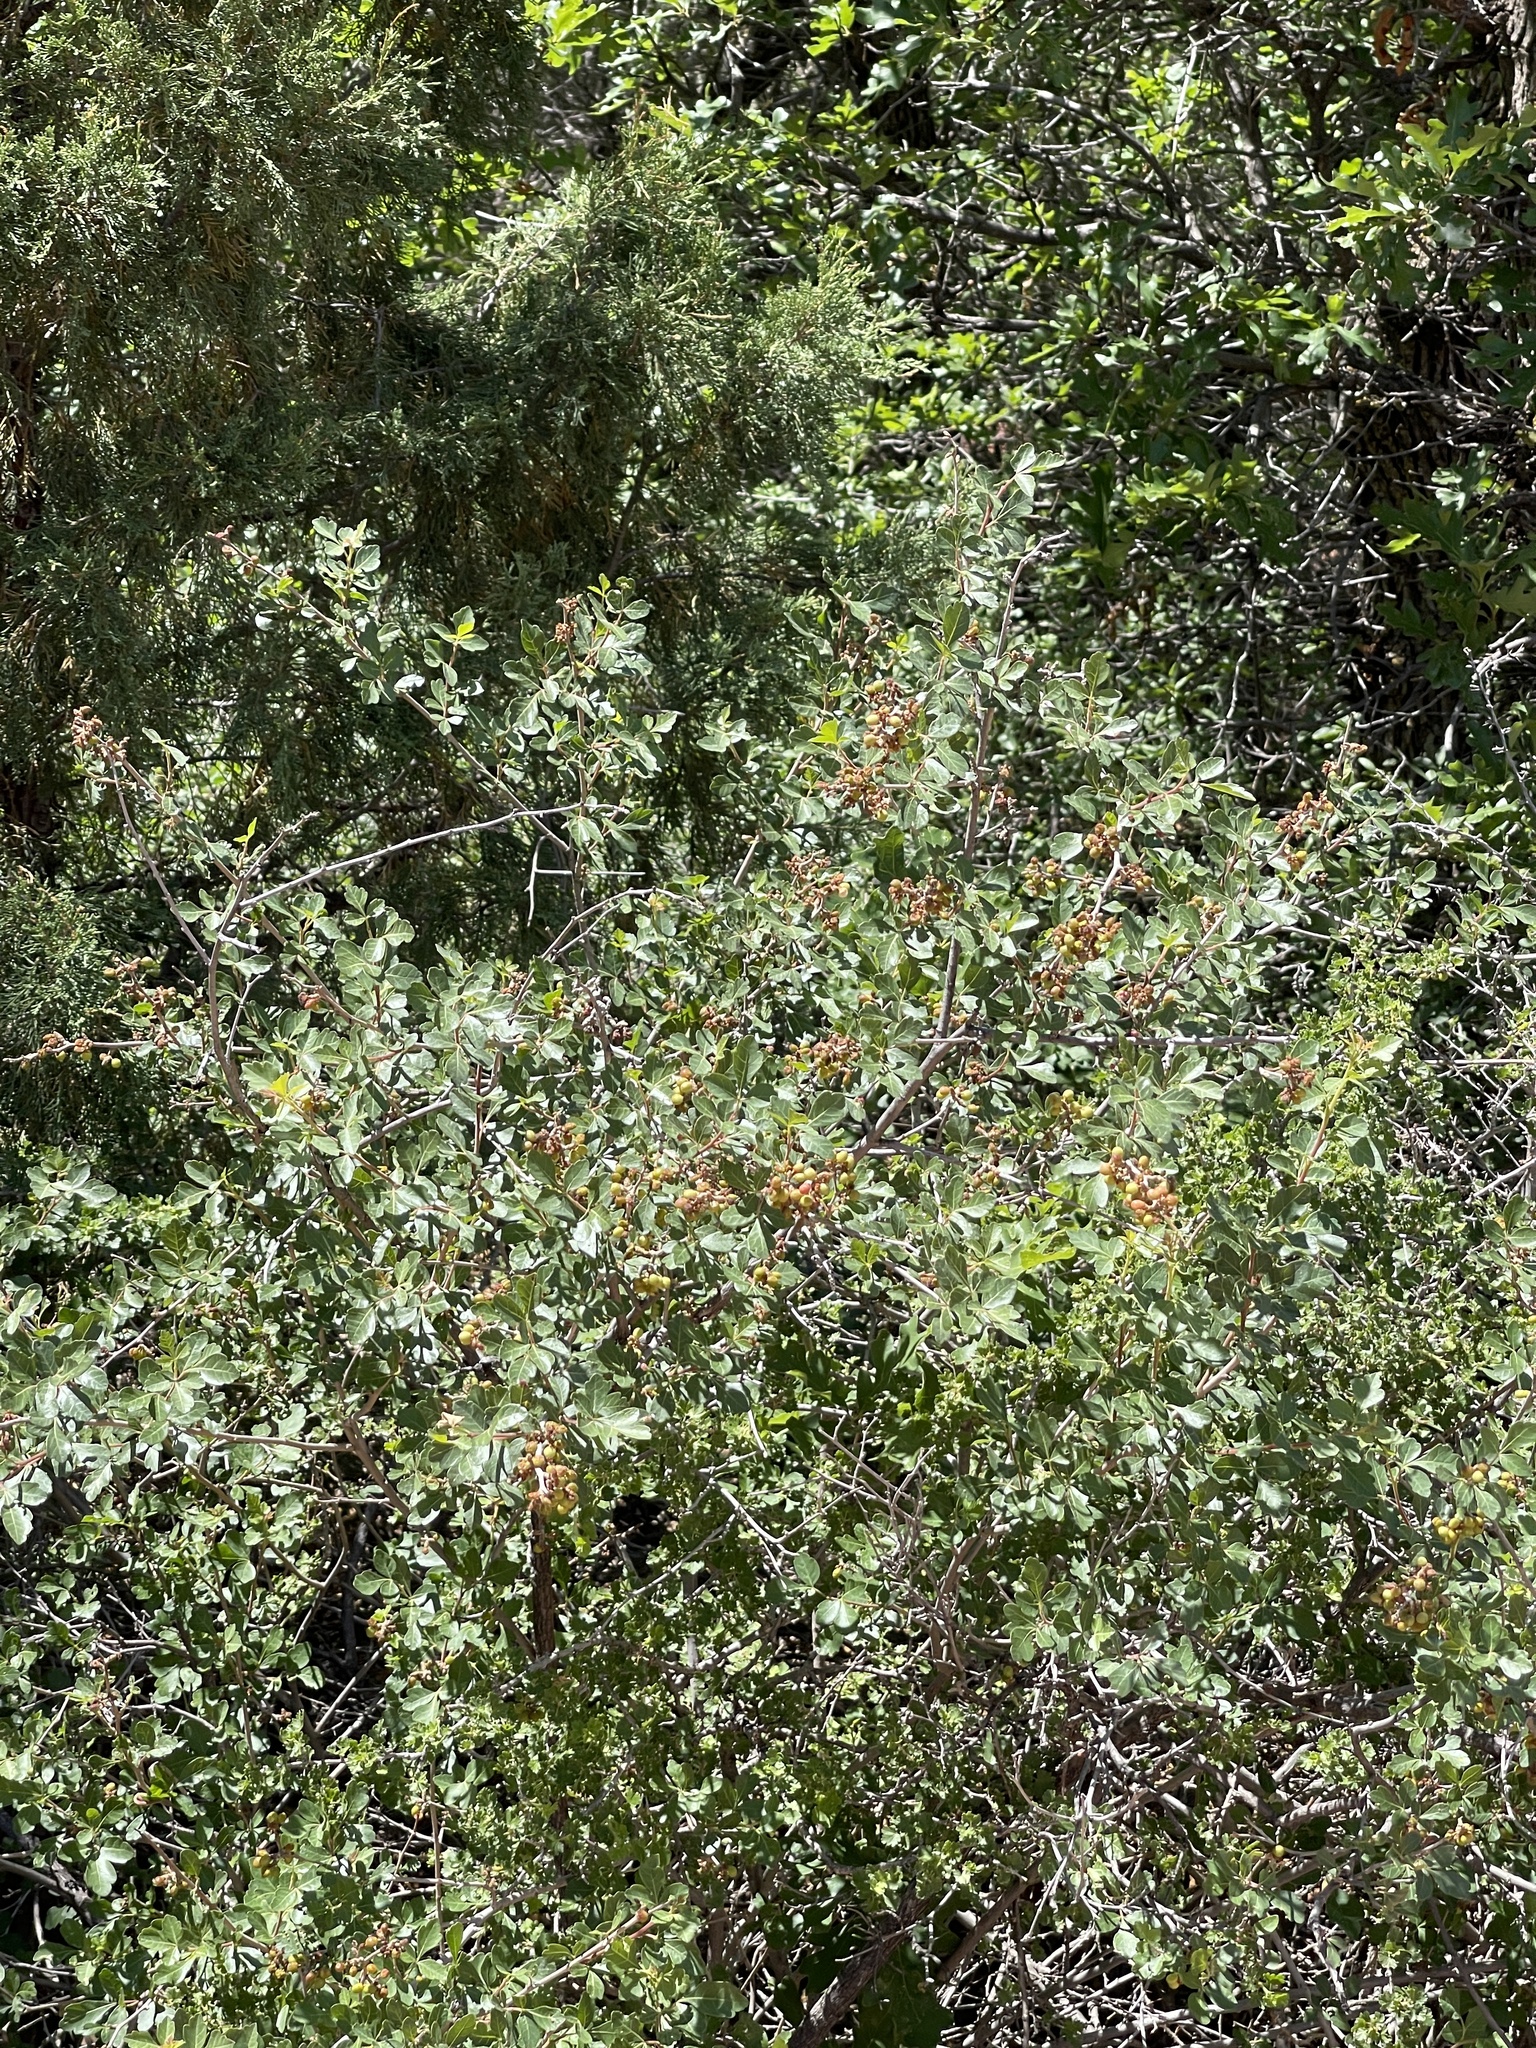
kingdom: Plantae
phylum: Tracheophyta
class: Magnoliopsida
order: Sapindales
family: Anacardiaceae
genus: Rhus
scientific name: Rhus trilobata
